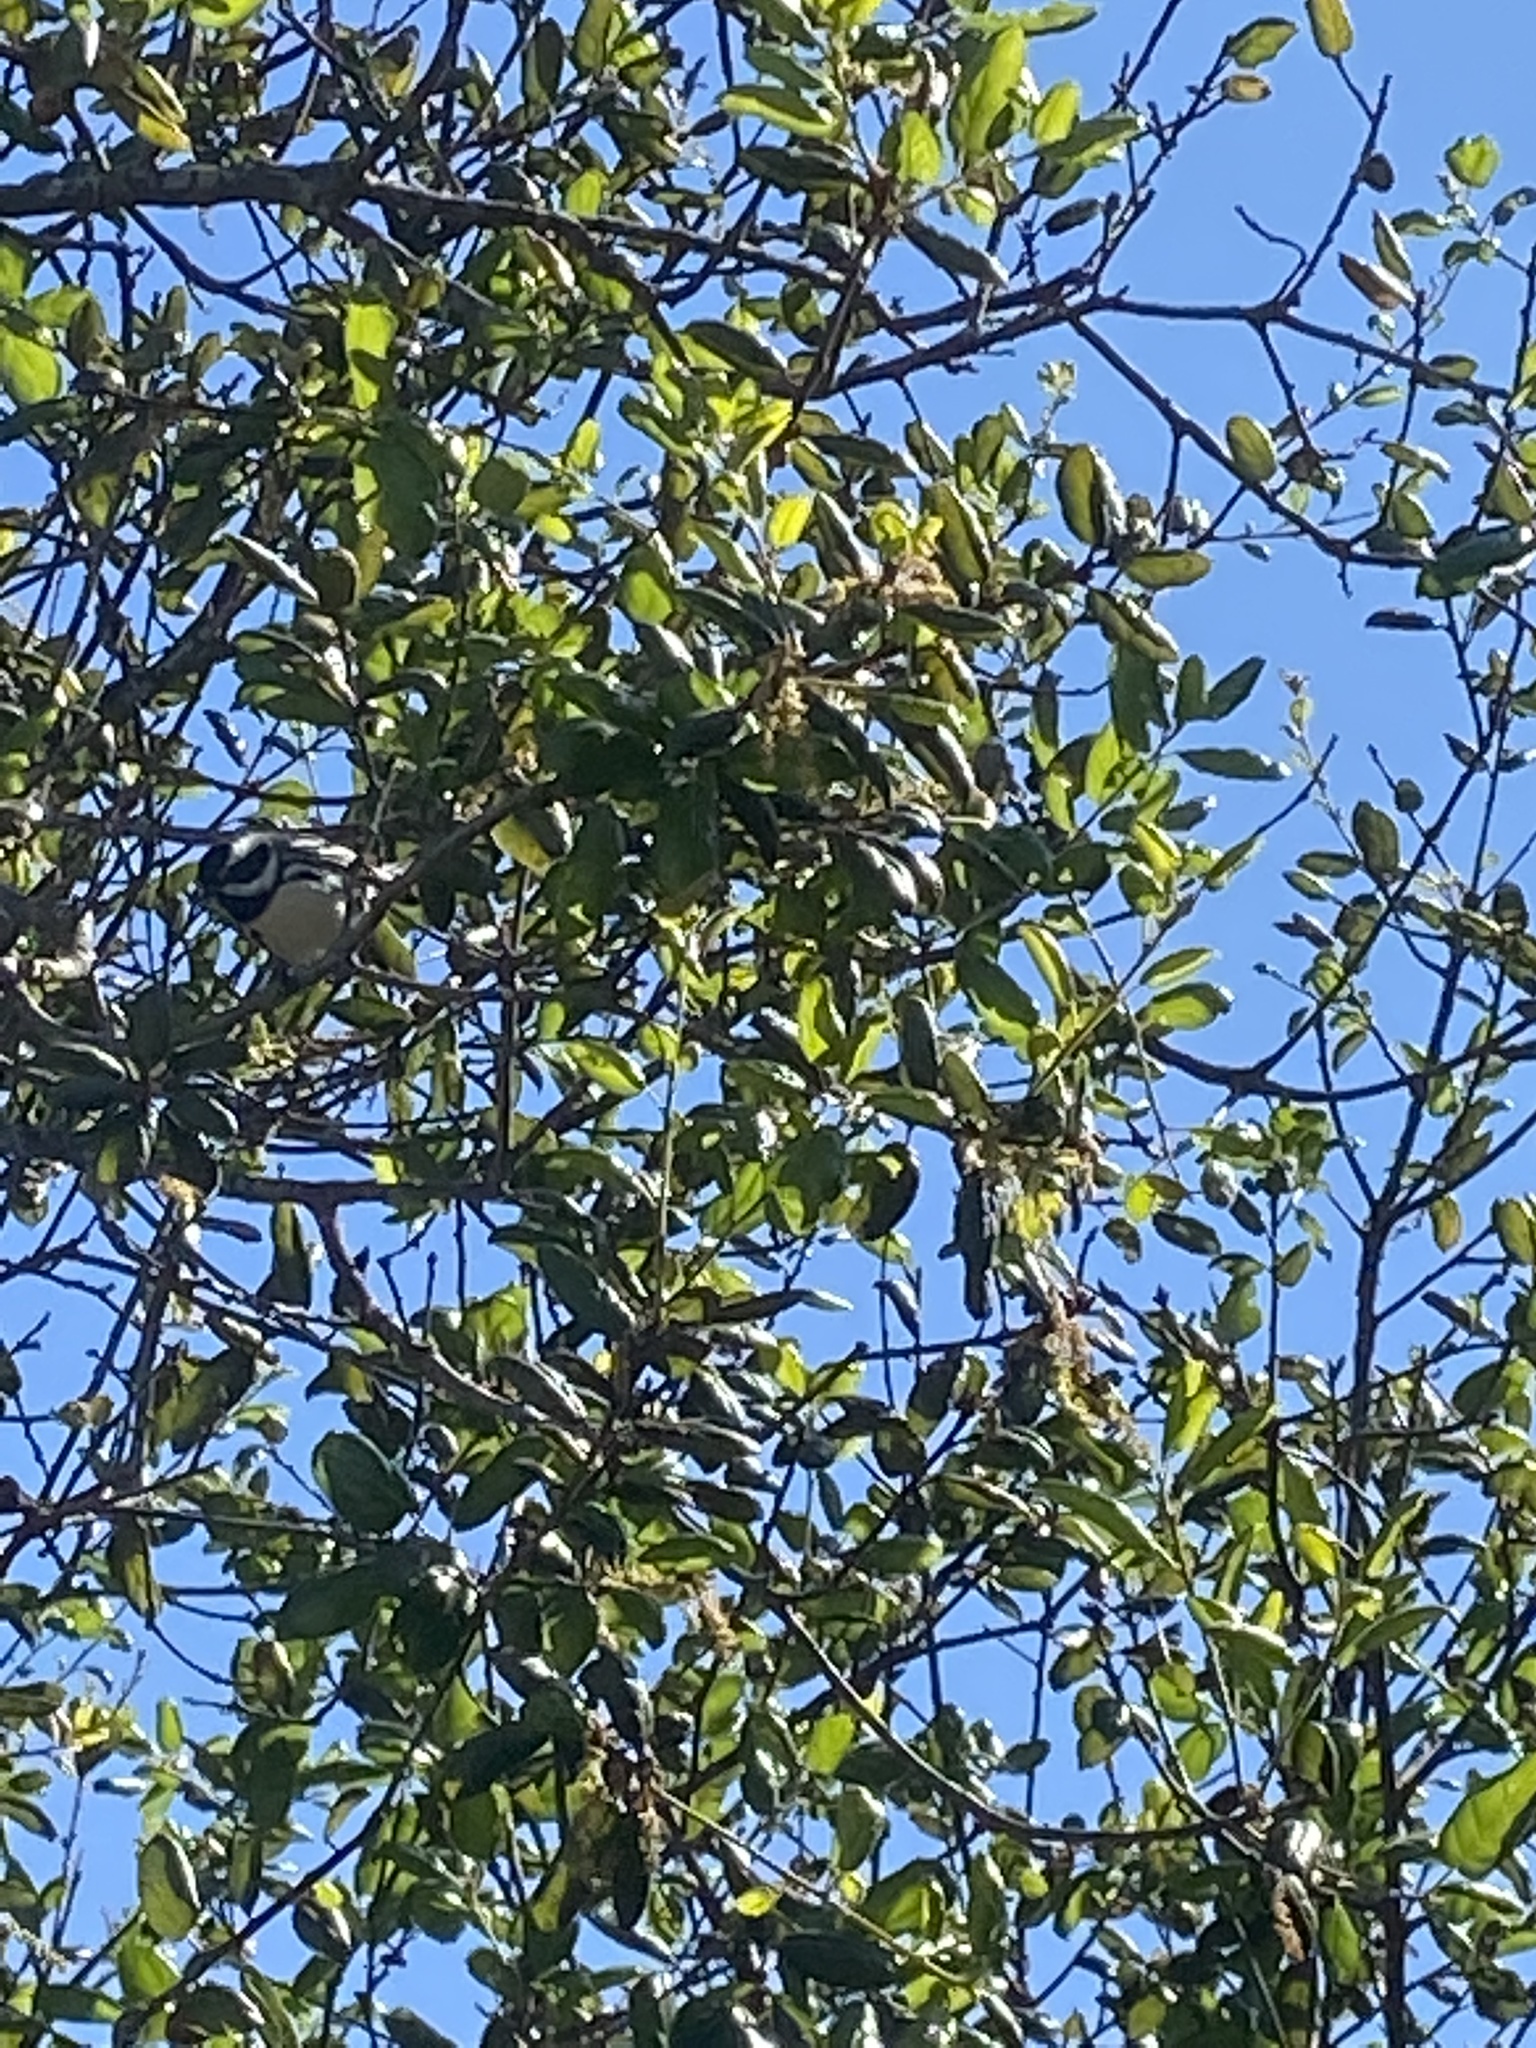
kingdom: Animalia
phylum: Chordata
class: Aves
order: Passeriformes
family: Parulidae
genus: Setophaga
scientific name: Setophaga nigrescens
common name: Black-throated gray warbler
